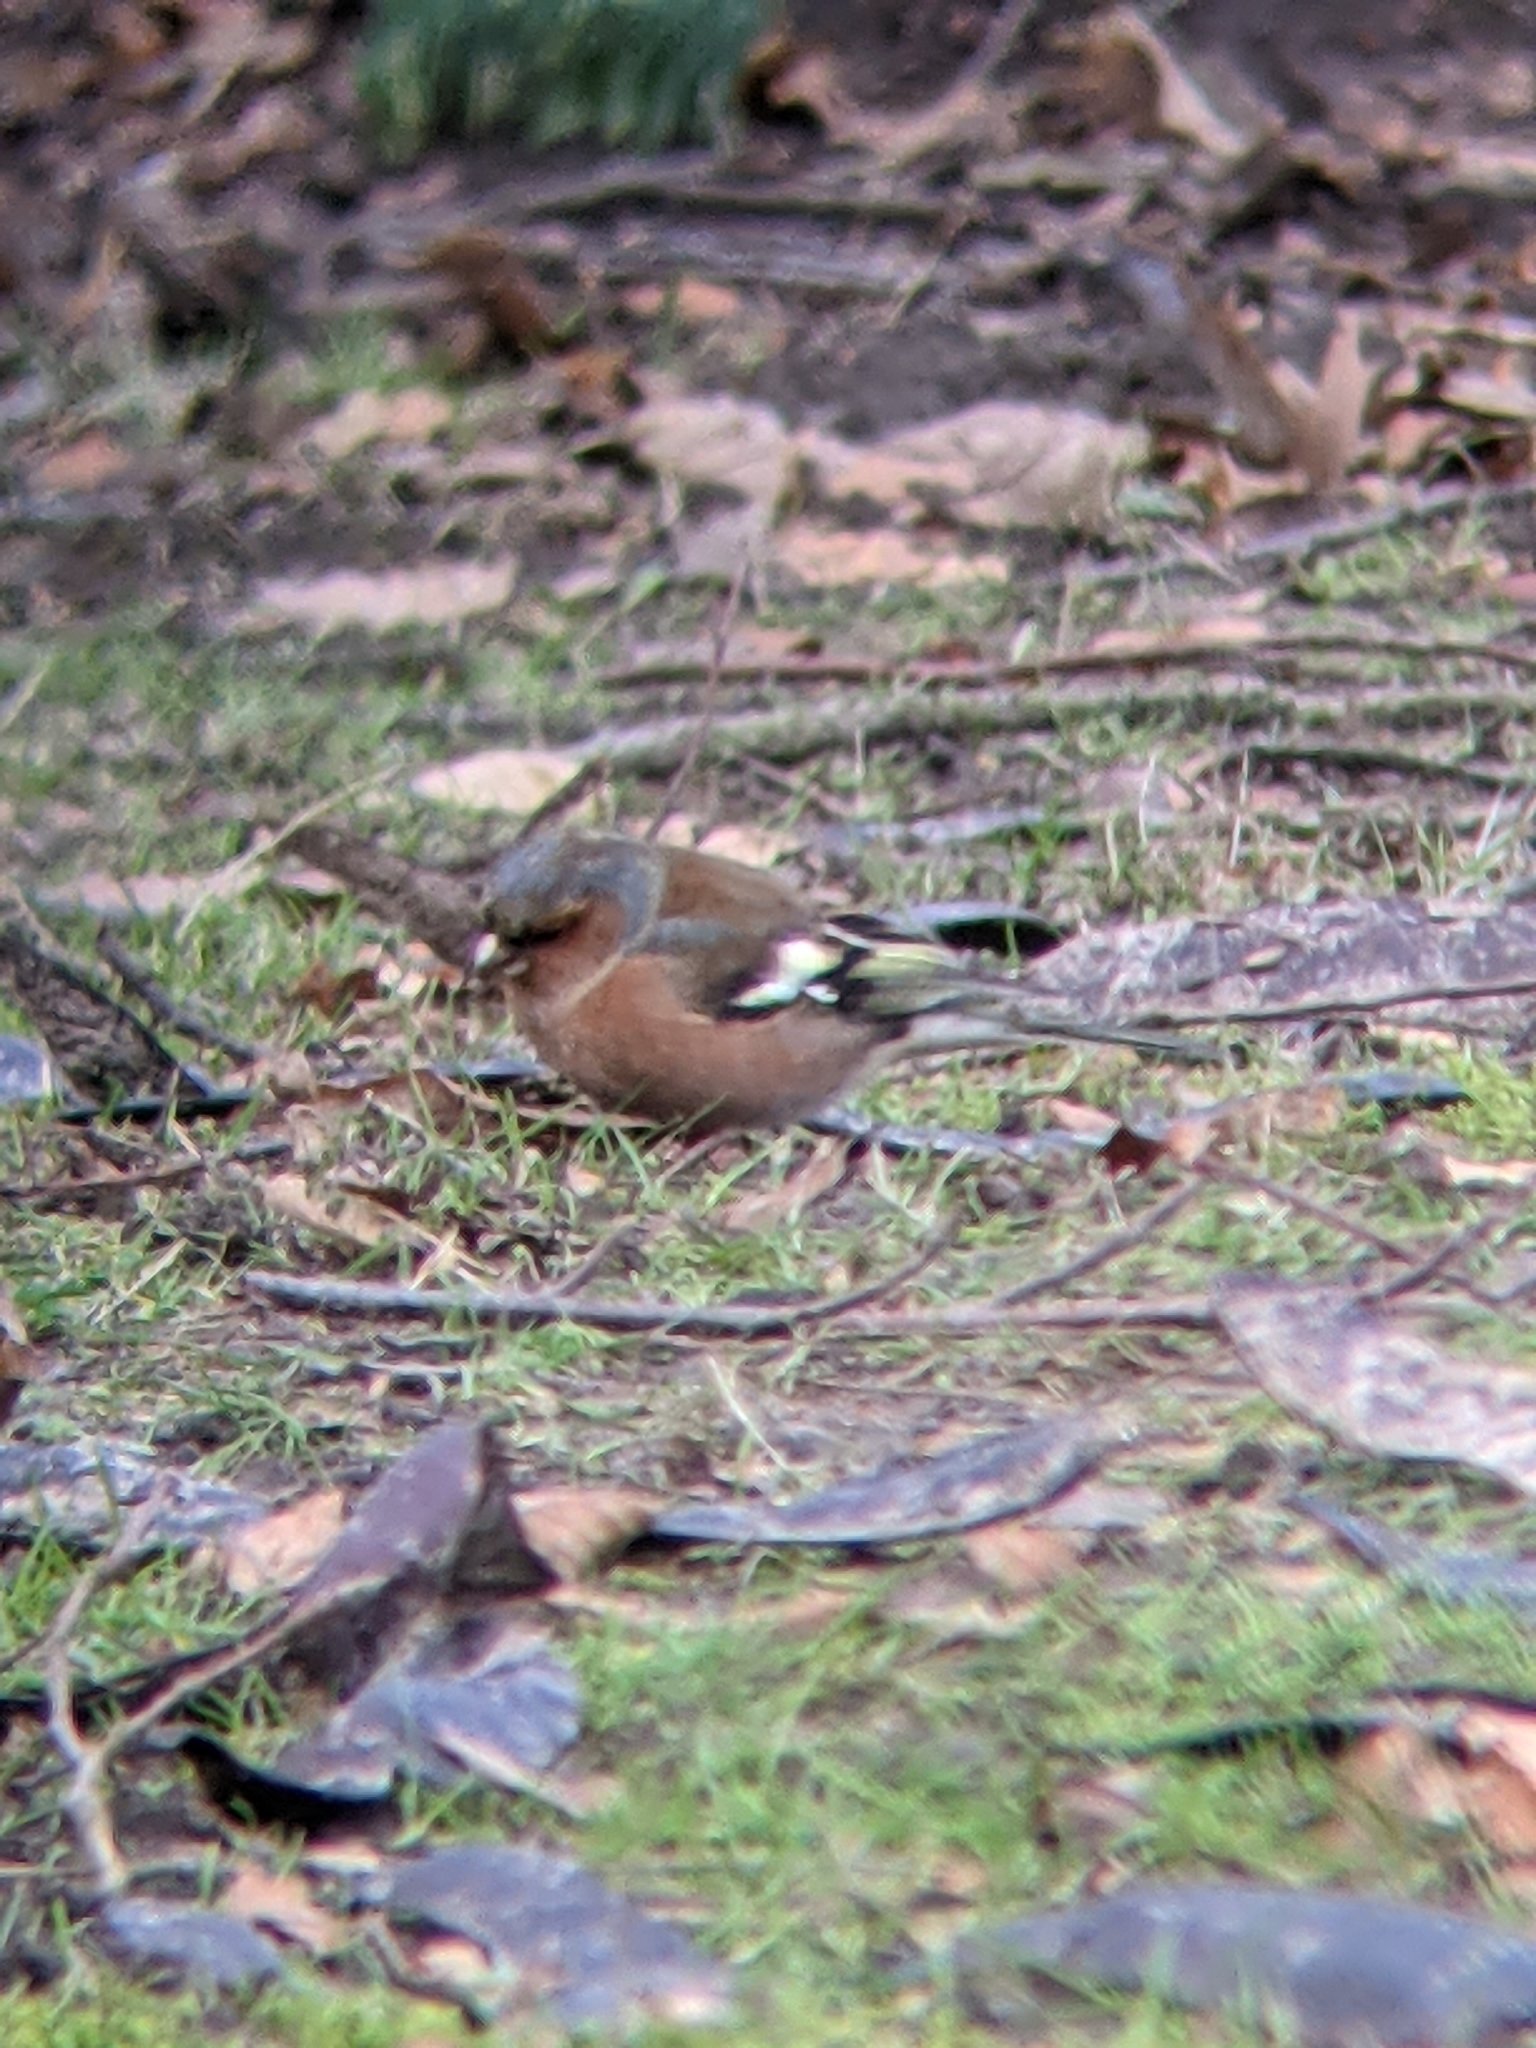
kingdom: Animalia
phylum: Chordata
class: Aves
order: Passeriformes
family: Fringillidae
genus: Fringilla
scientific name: Fringilla coelebs
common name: Common chaffinch
